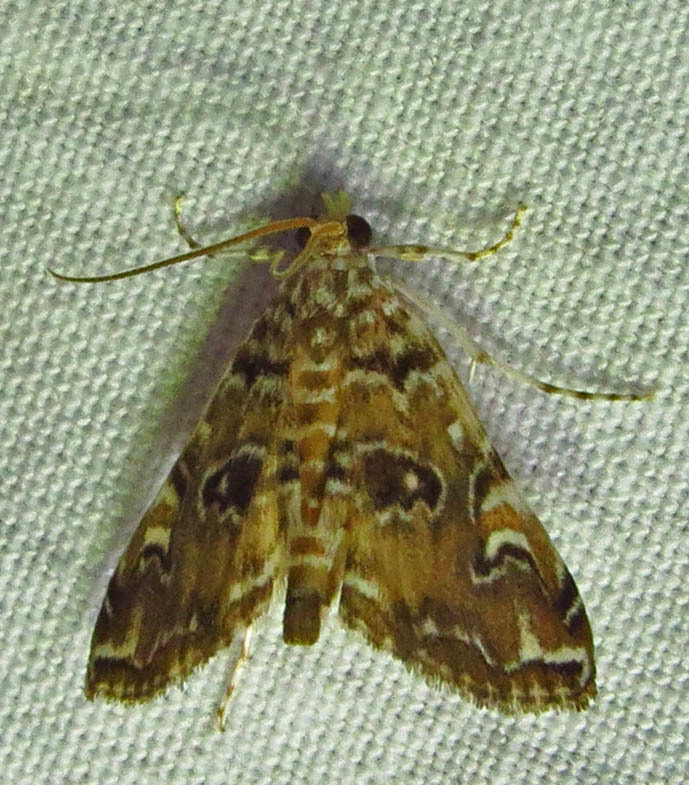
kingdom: Animalia
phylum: Arthropoda
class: Insecta
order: Lepidoptera
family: Crambidae
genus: Elophila
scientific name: Elophila gyralis
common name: Waterlily borer moth
